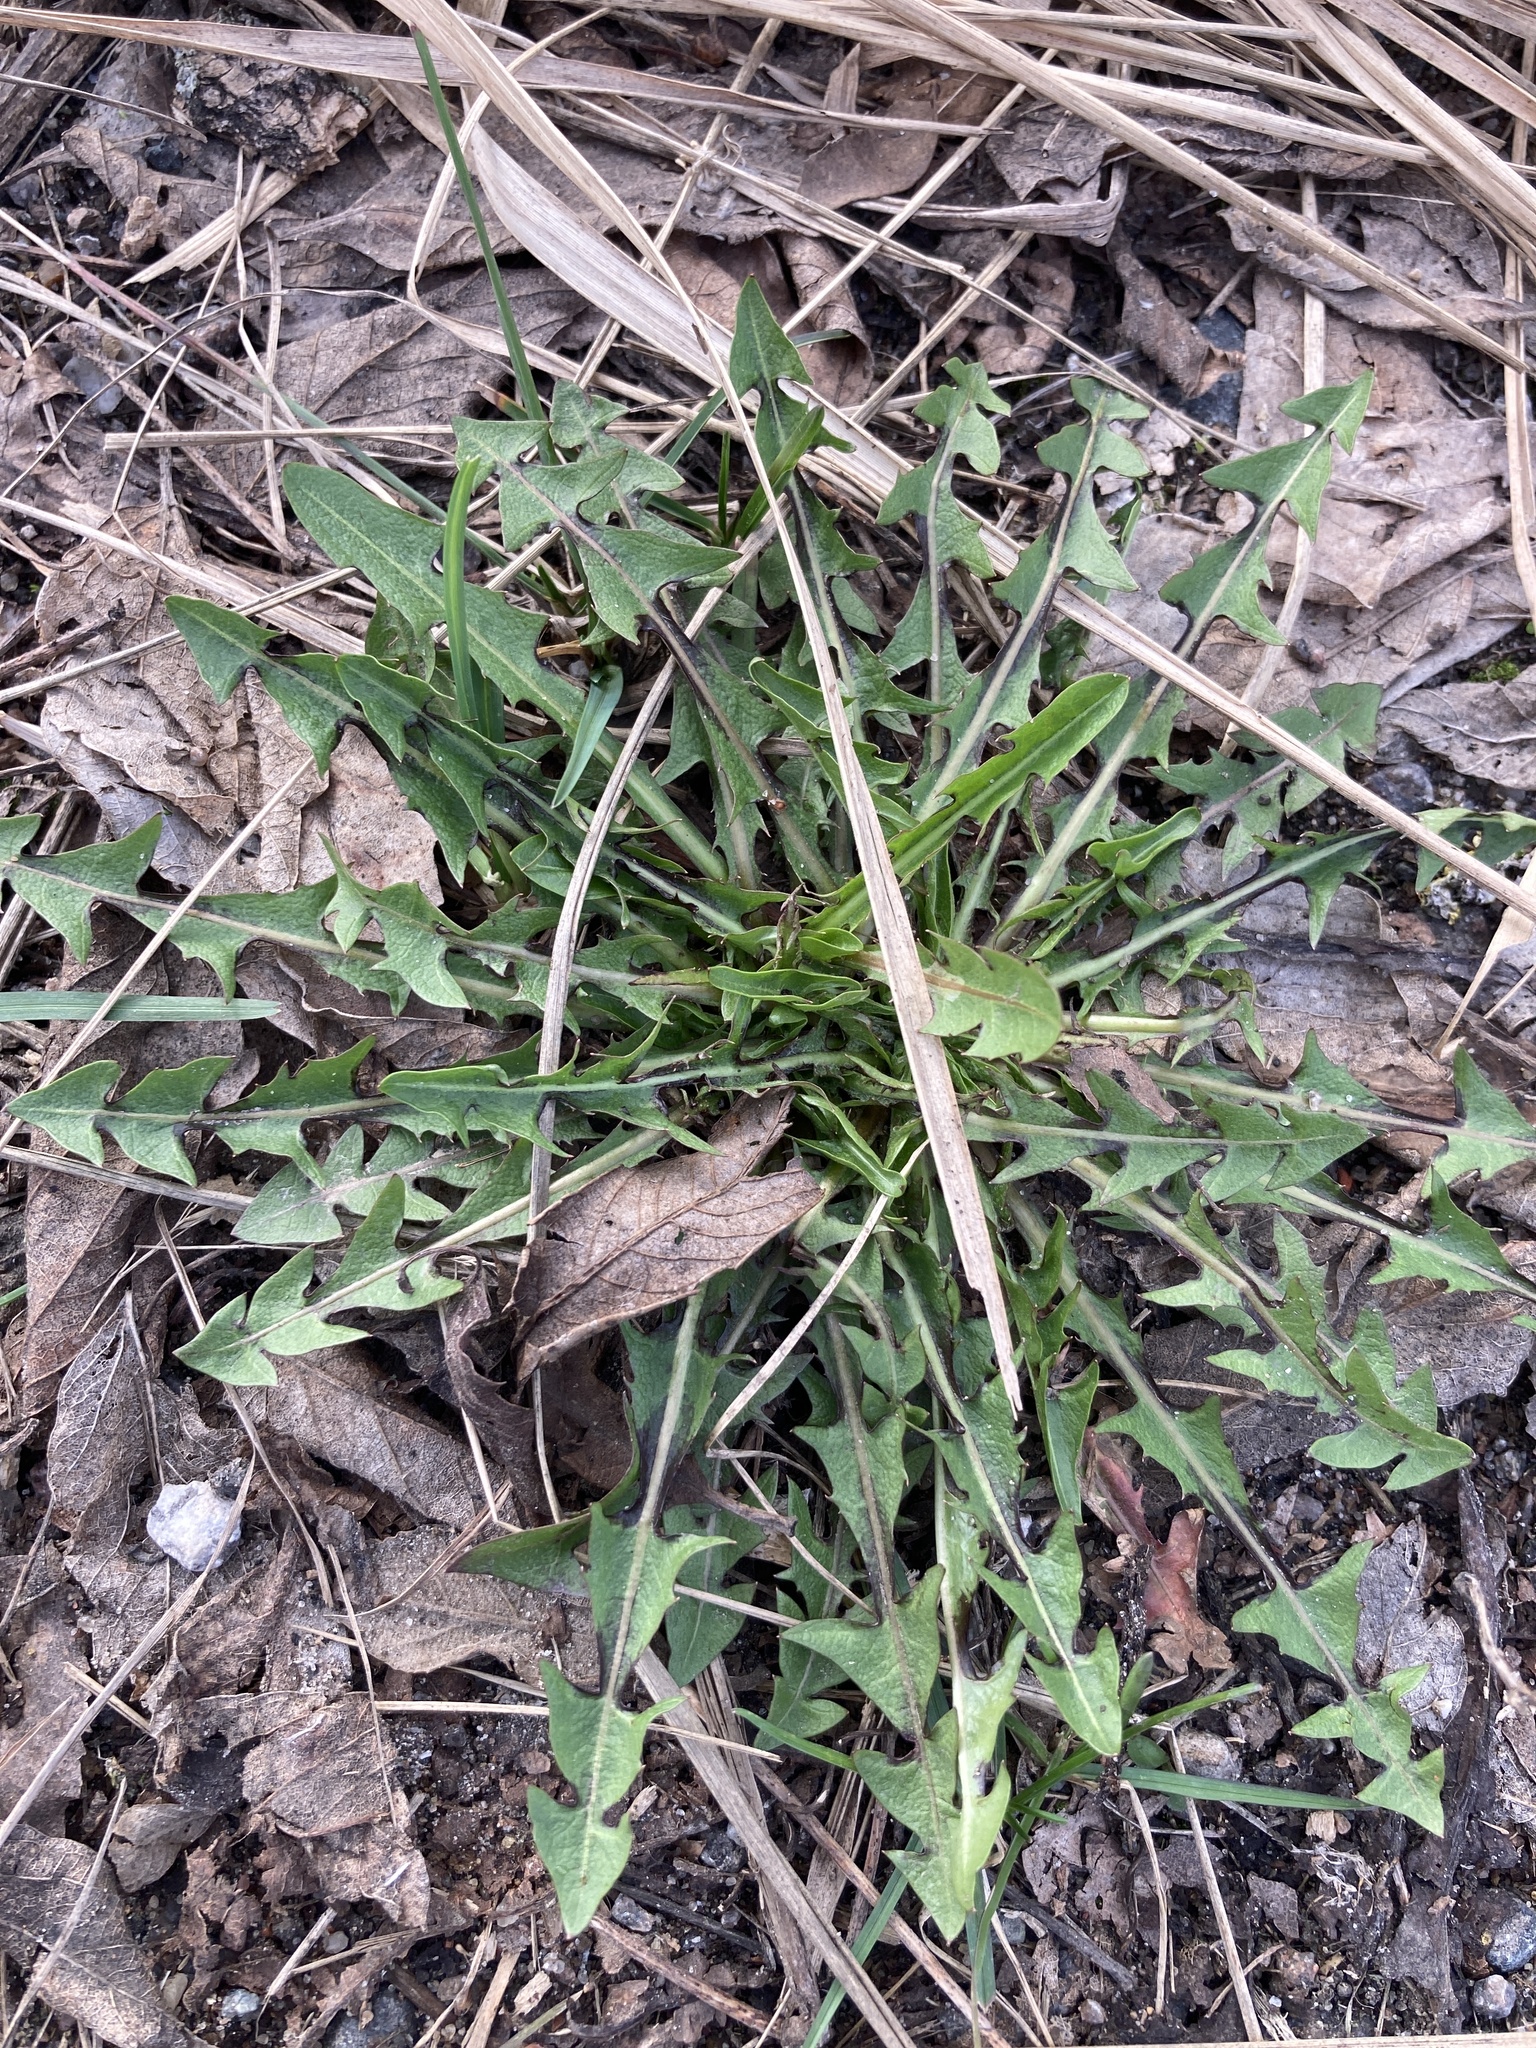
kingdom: Plantae
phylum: Tracheophyta
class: Magnoliopsida
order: Asterales
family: Asteraceae
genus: Taraxacum
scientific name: Taraxacum officinale
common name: Common dandelion
